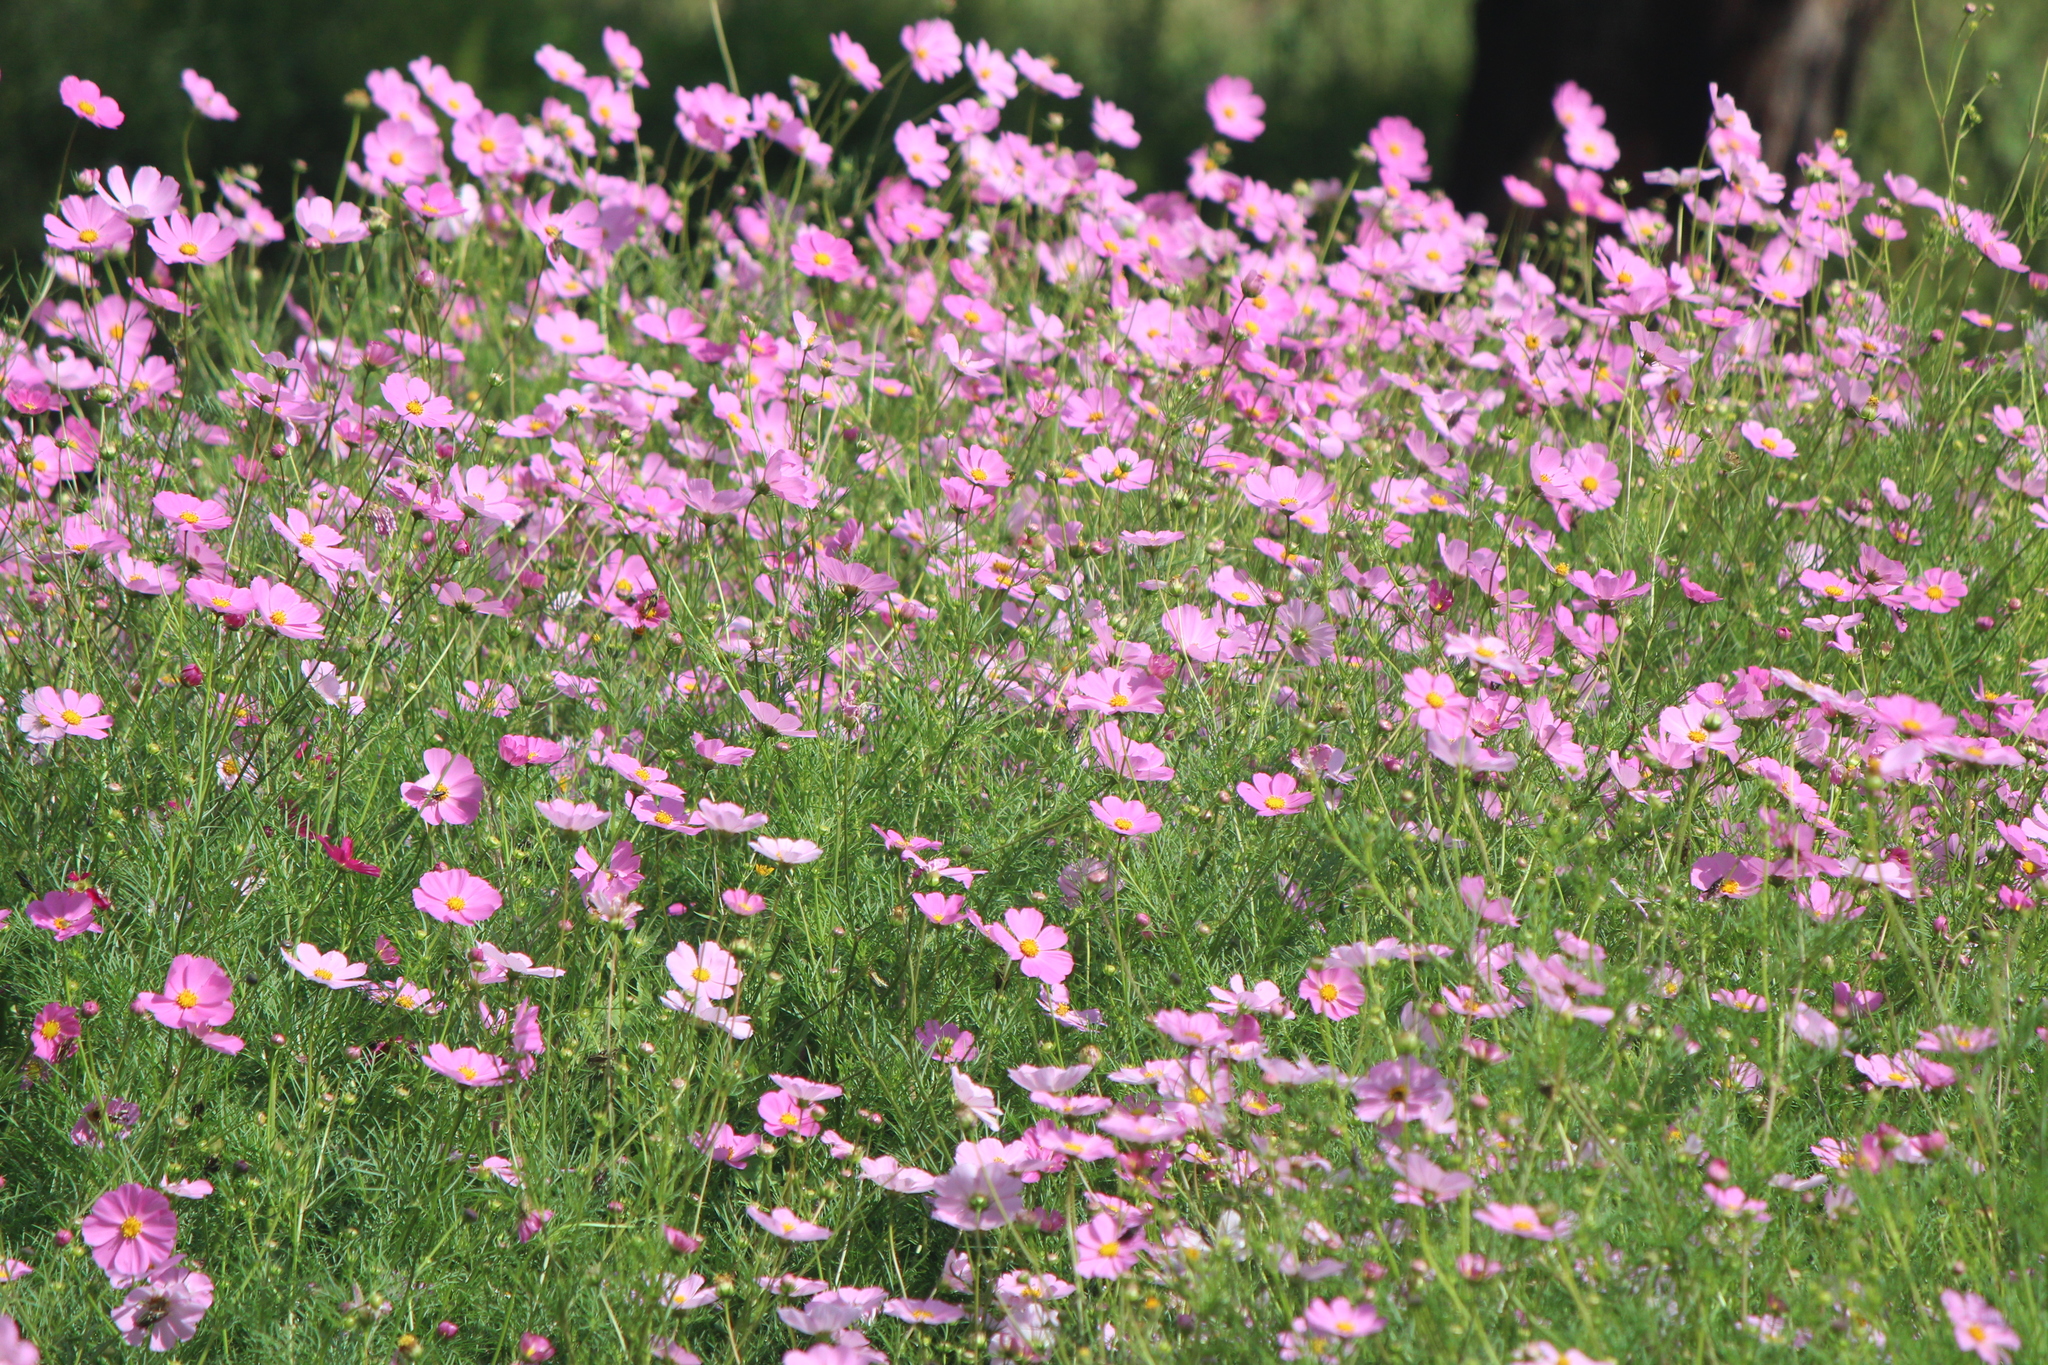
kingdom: Plantae
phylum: Tracheophyta
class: Magnoliopsida
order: Asterales
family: Asteraceae
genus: Cosmos
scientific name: Cosmos bipinnatus
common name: Garden cosmos
